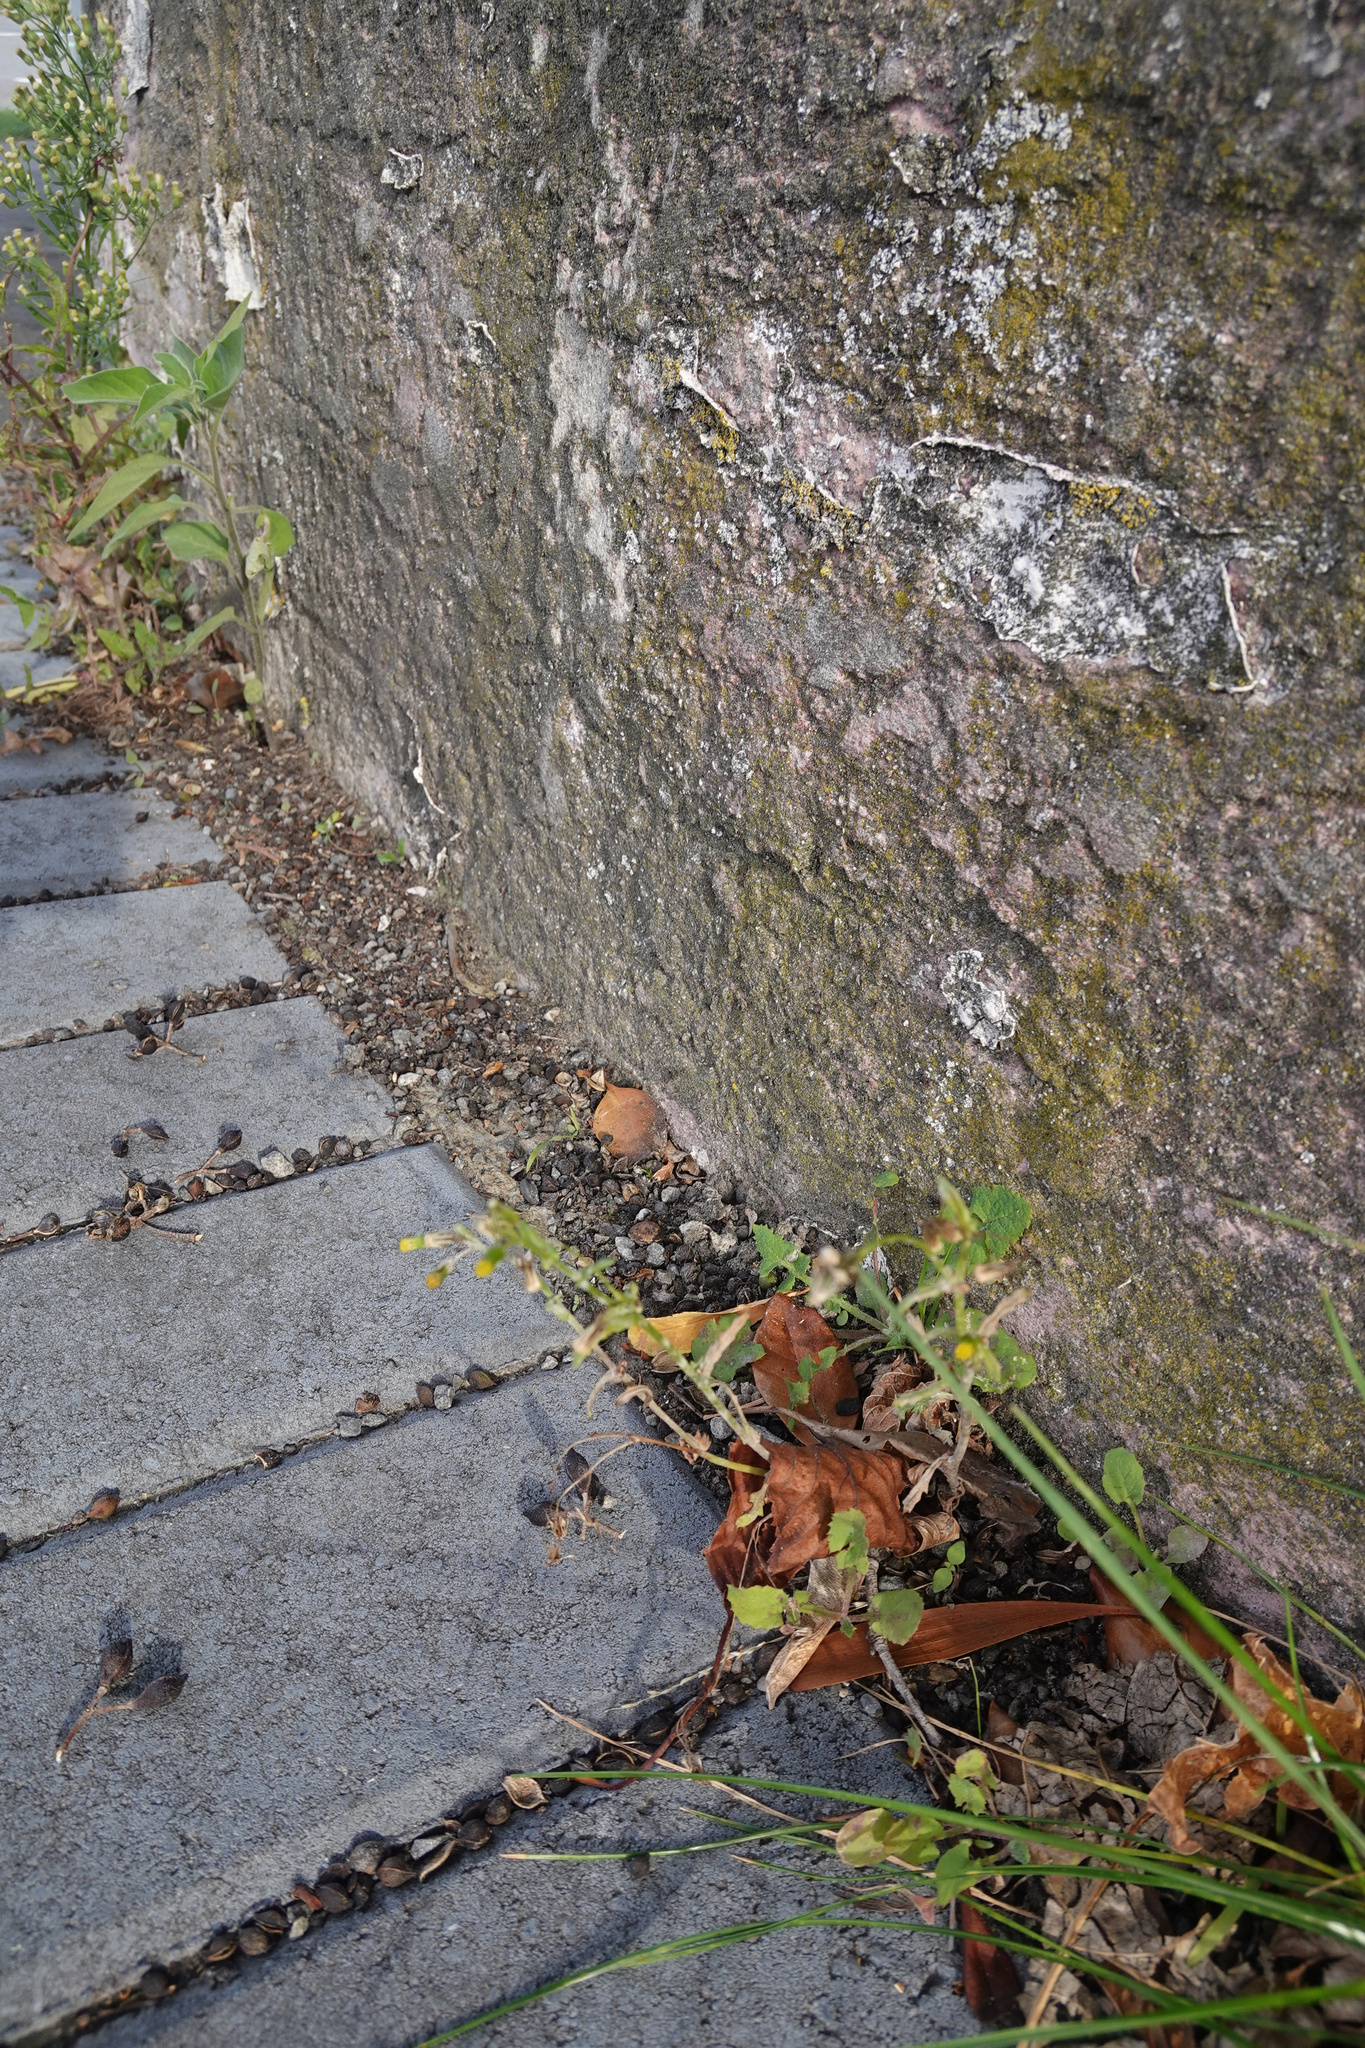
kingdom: Plantae
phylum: Tracheophyta
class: Magnoliopsida
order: Asterales
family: Asteraceae
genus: Senecio
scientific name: Senecio vulgaris
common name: Old-man-in-the-spring
